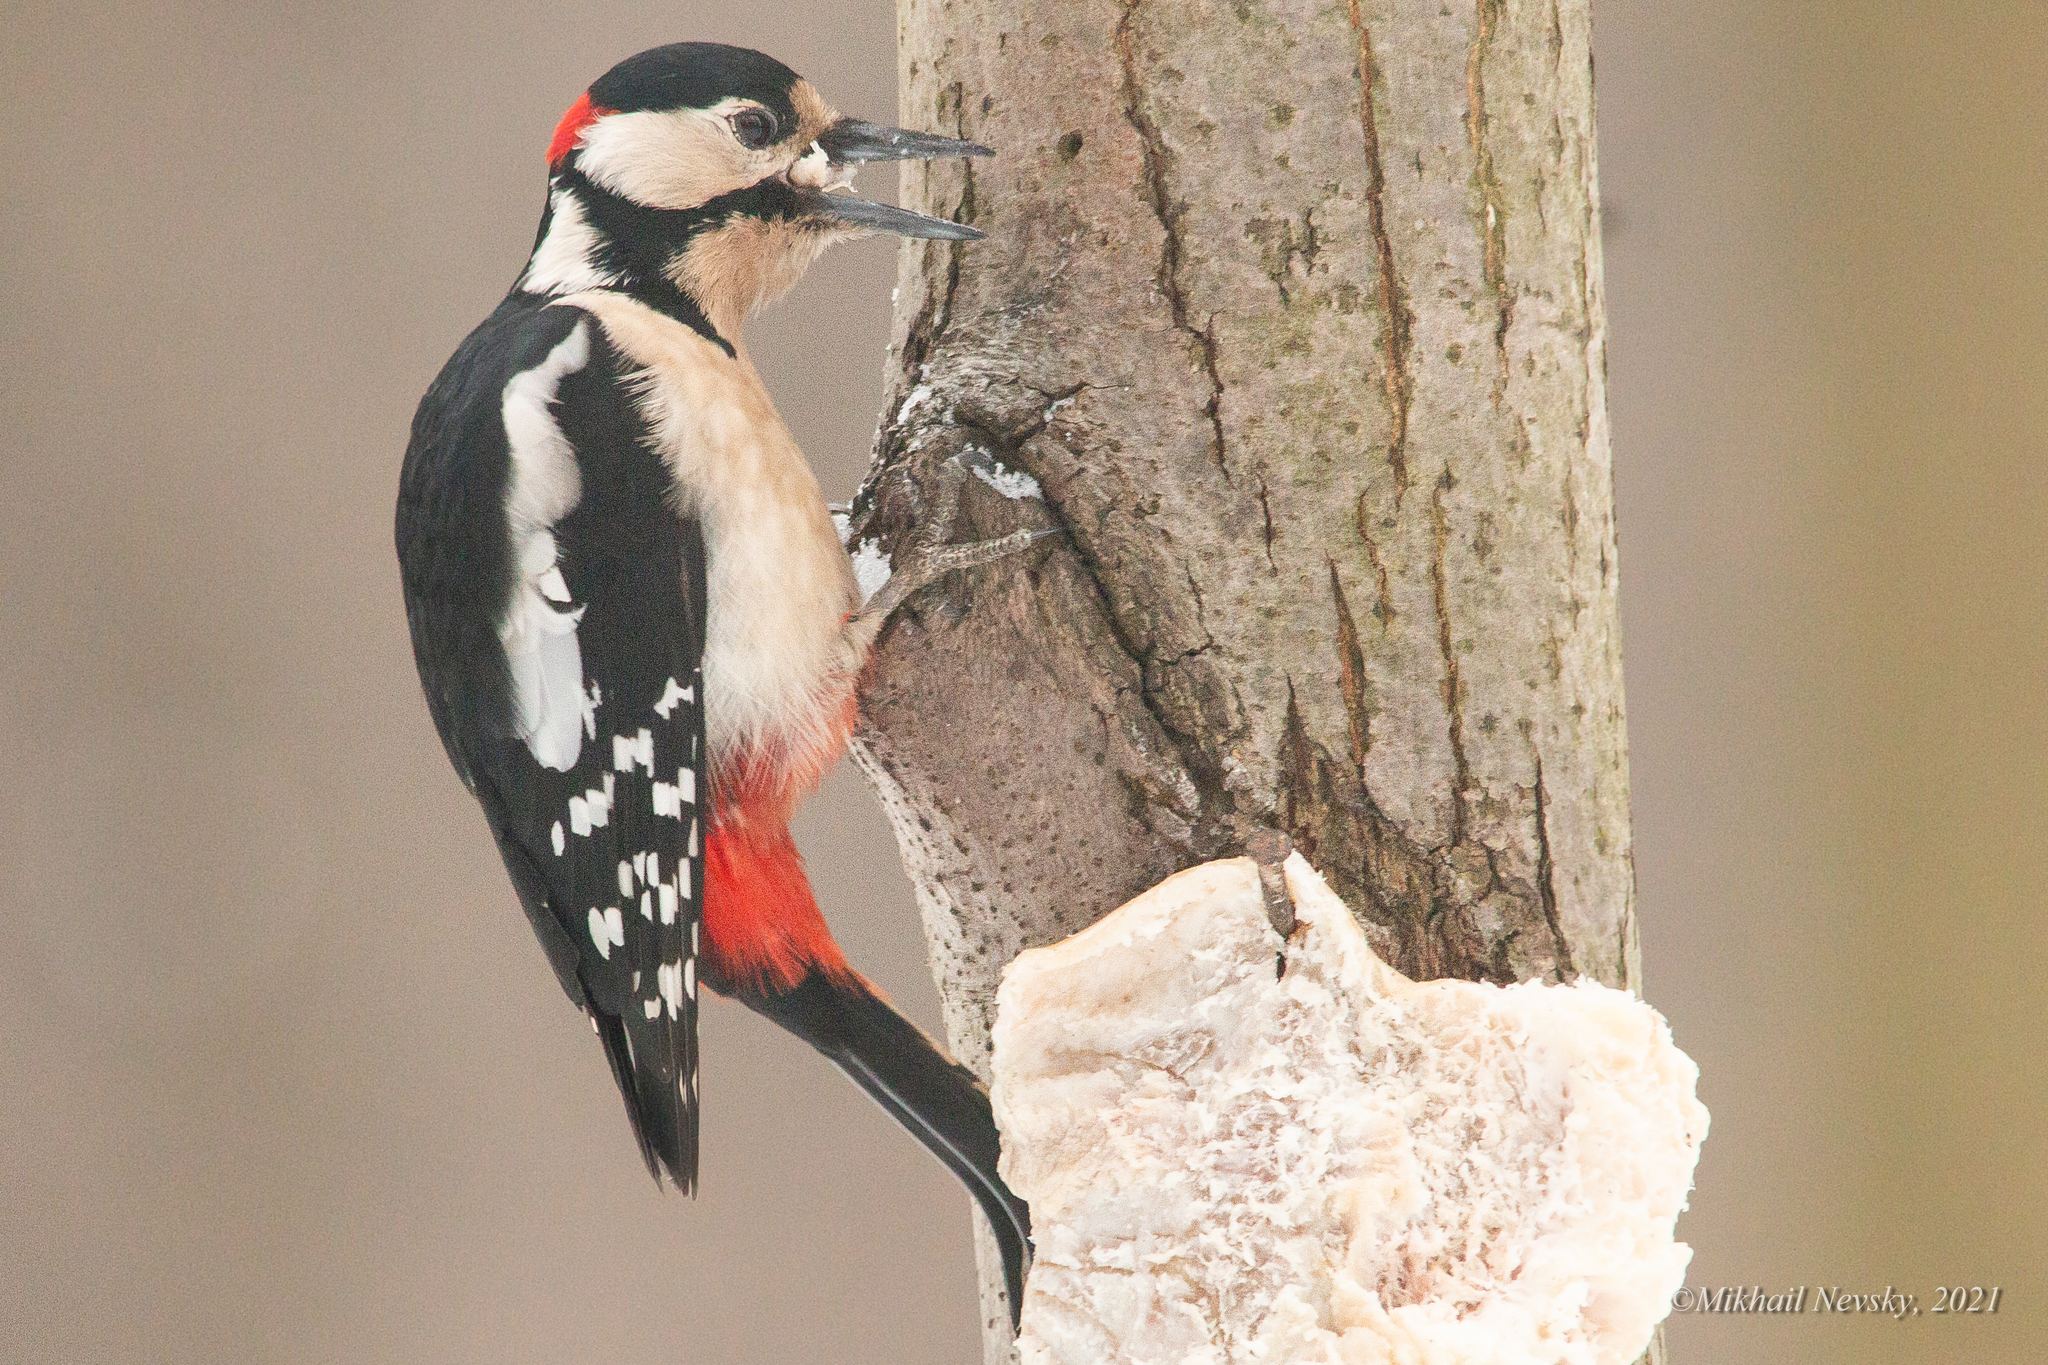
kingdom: Animalia
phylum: Chordata
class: Aves
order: Piciformes
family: Picidae
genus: Dendrocopos
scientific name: Dendrocopos major
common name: Great spotted woodpecker
